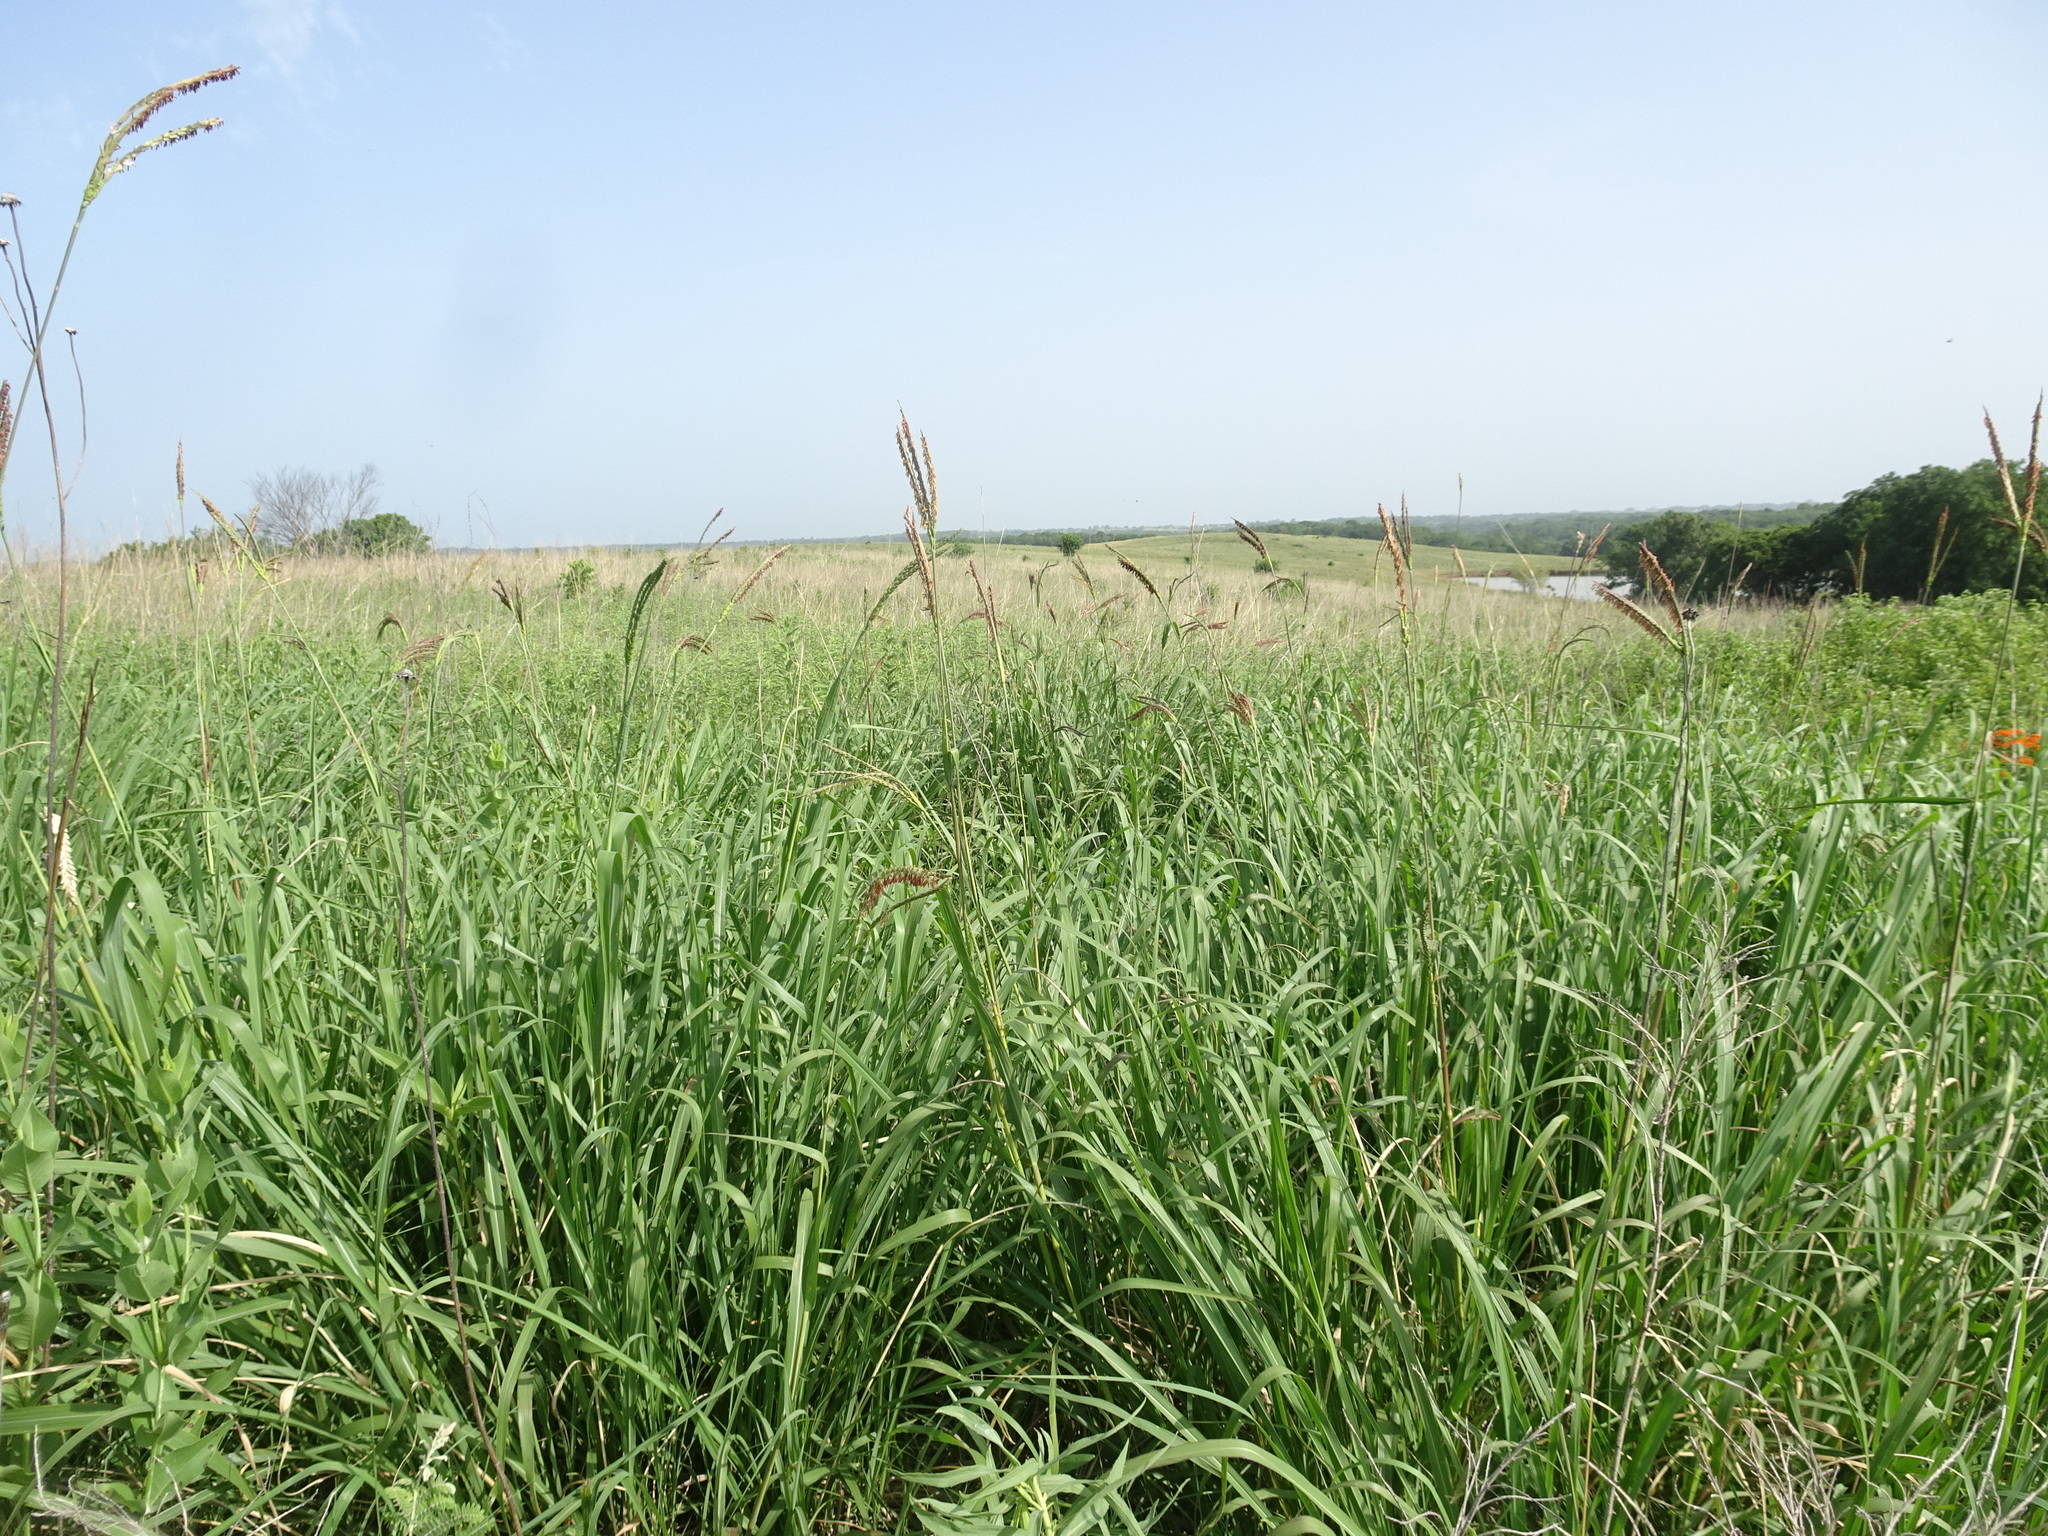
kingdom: Plantae
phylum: Tracheophyta
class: Liliopsida
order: Poales
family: Poaceae
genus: Tripsacum
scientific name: Tripsacum dactyloides
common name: Buffalo-grass
